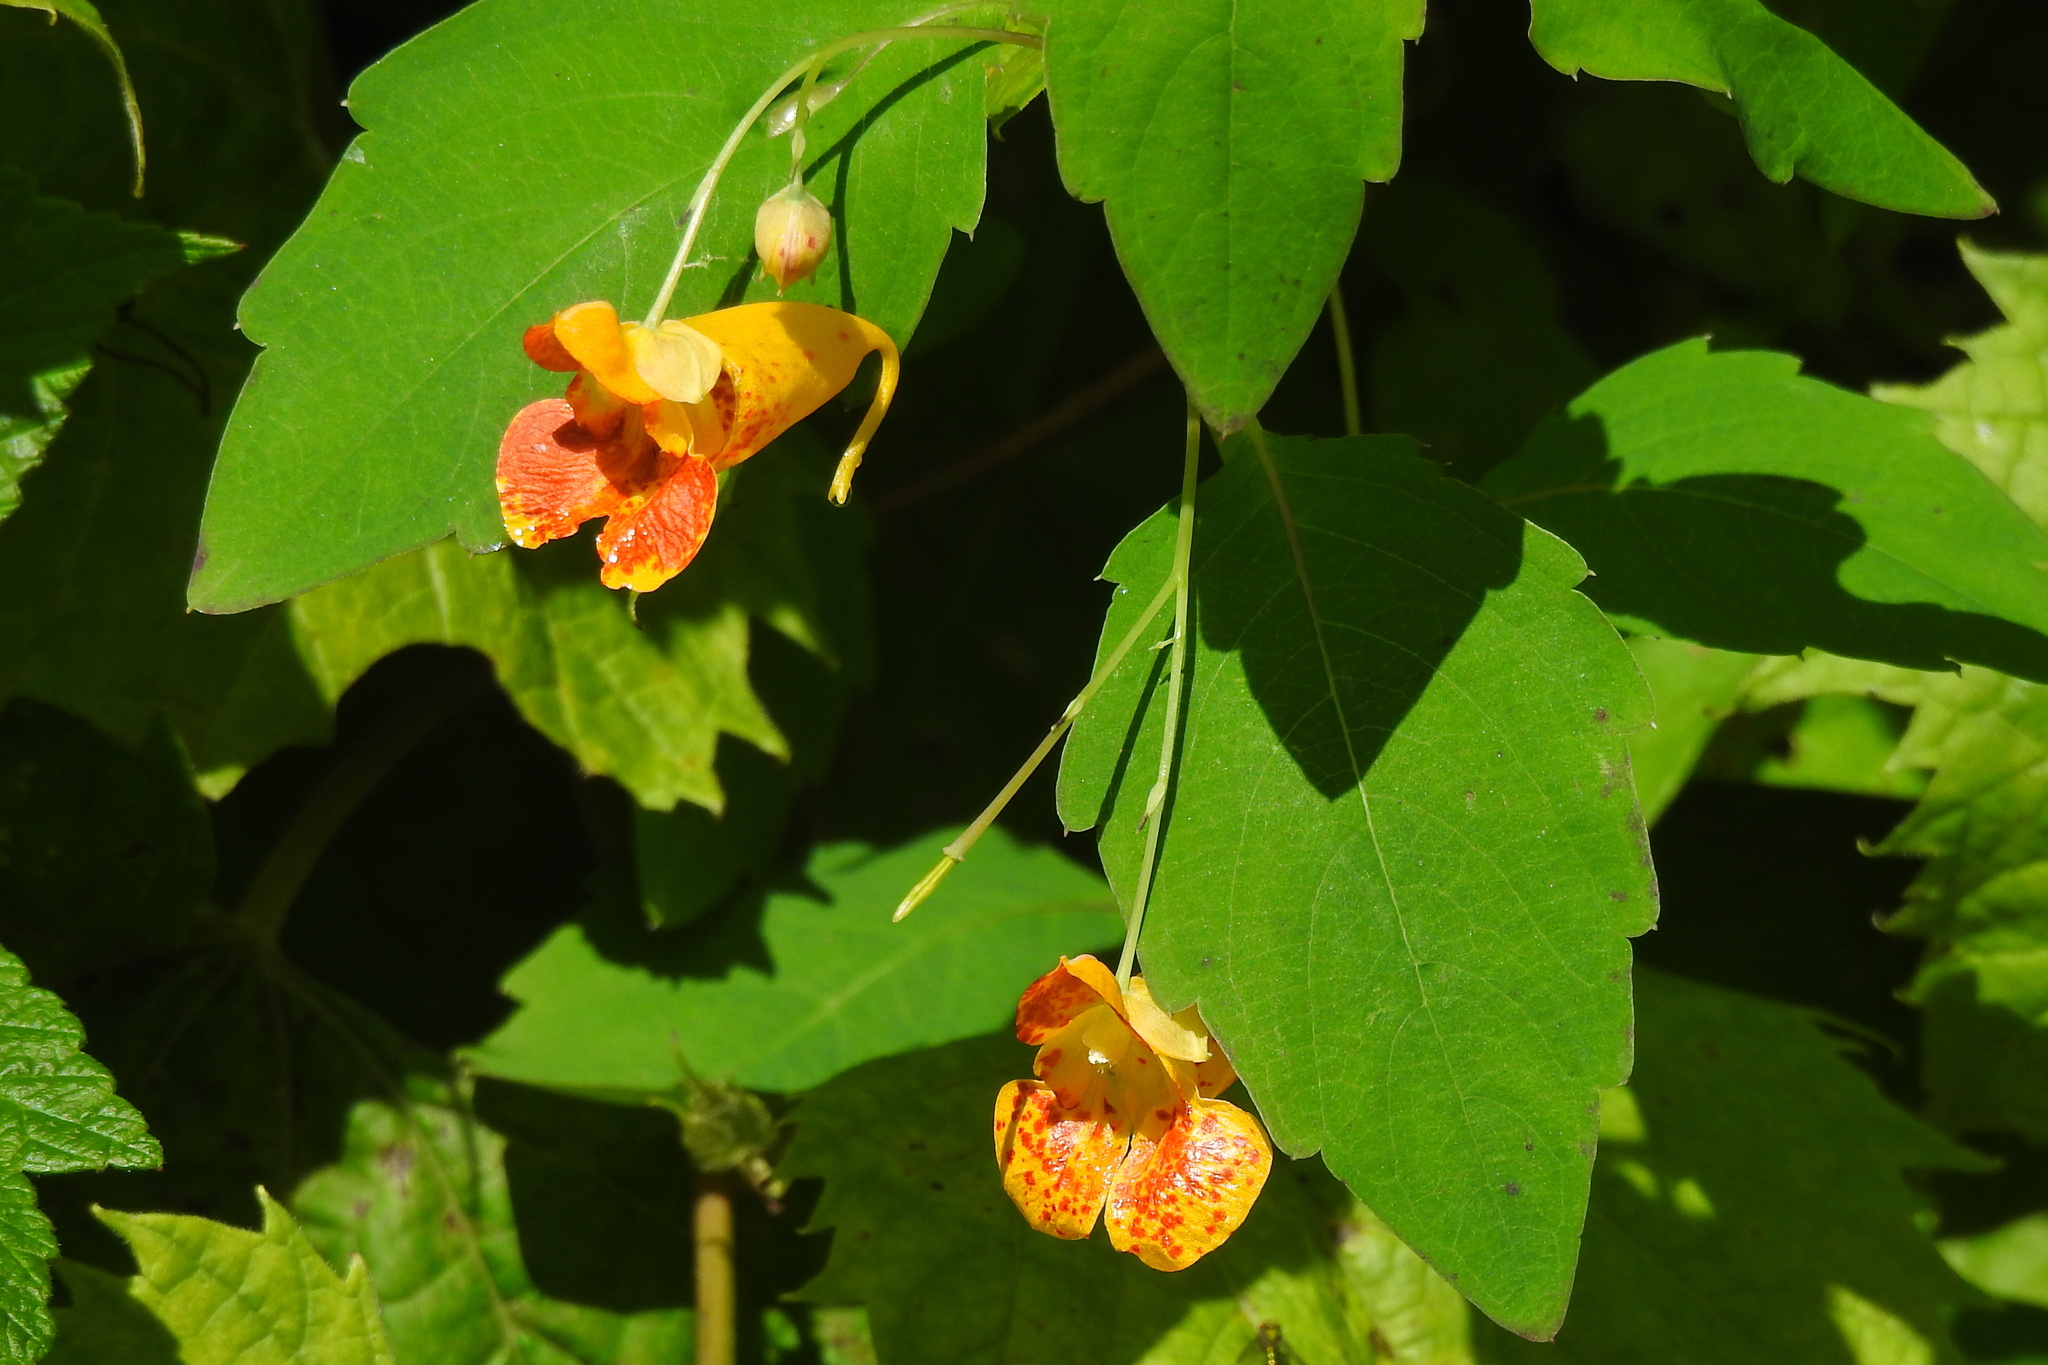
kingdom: Plantae
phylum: Tracheophyta
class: Magnoliopsida
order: Ericales
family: Balsaminaceae
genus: Impatiens
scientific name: Impatiens capensis
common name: Orange balsam
